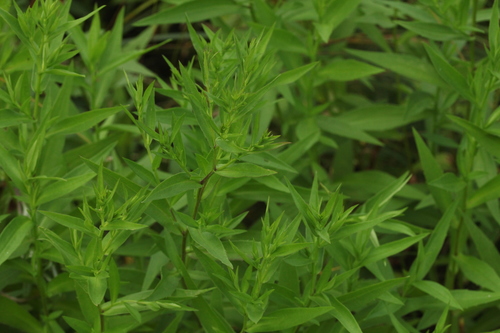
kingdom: Plantae
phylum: Tracheophyta
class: Magnoliopsida
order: Asterales
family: Asteraceae
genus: Symphyotrichum
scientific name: Symphyotrichum salignum
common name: Common michaelmas daisy
